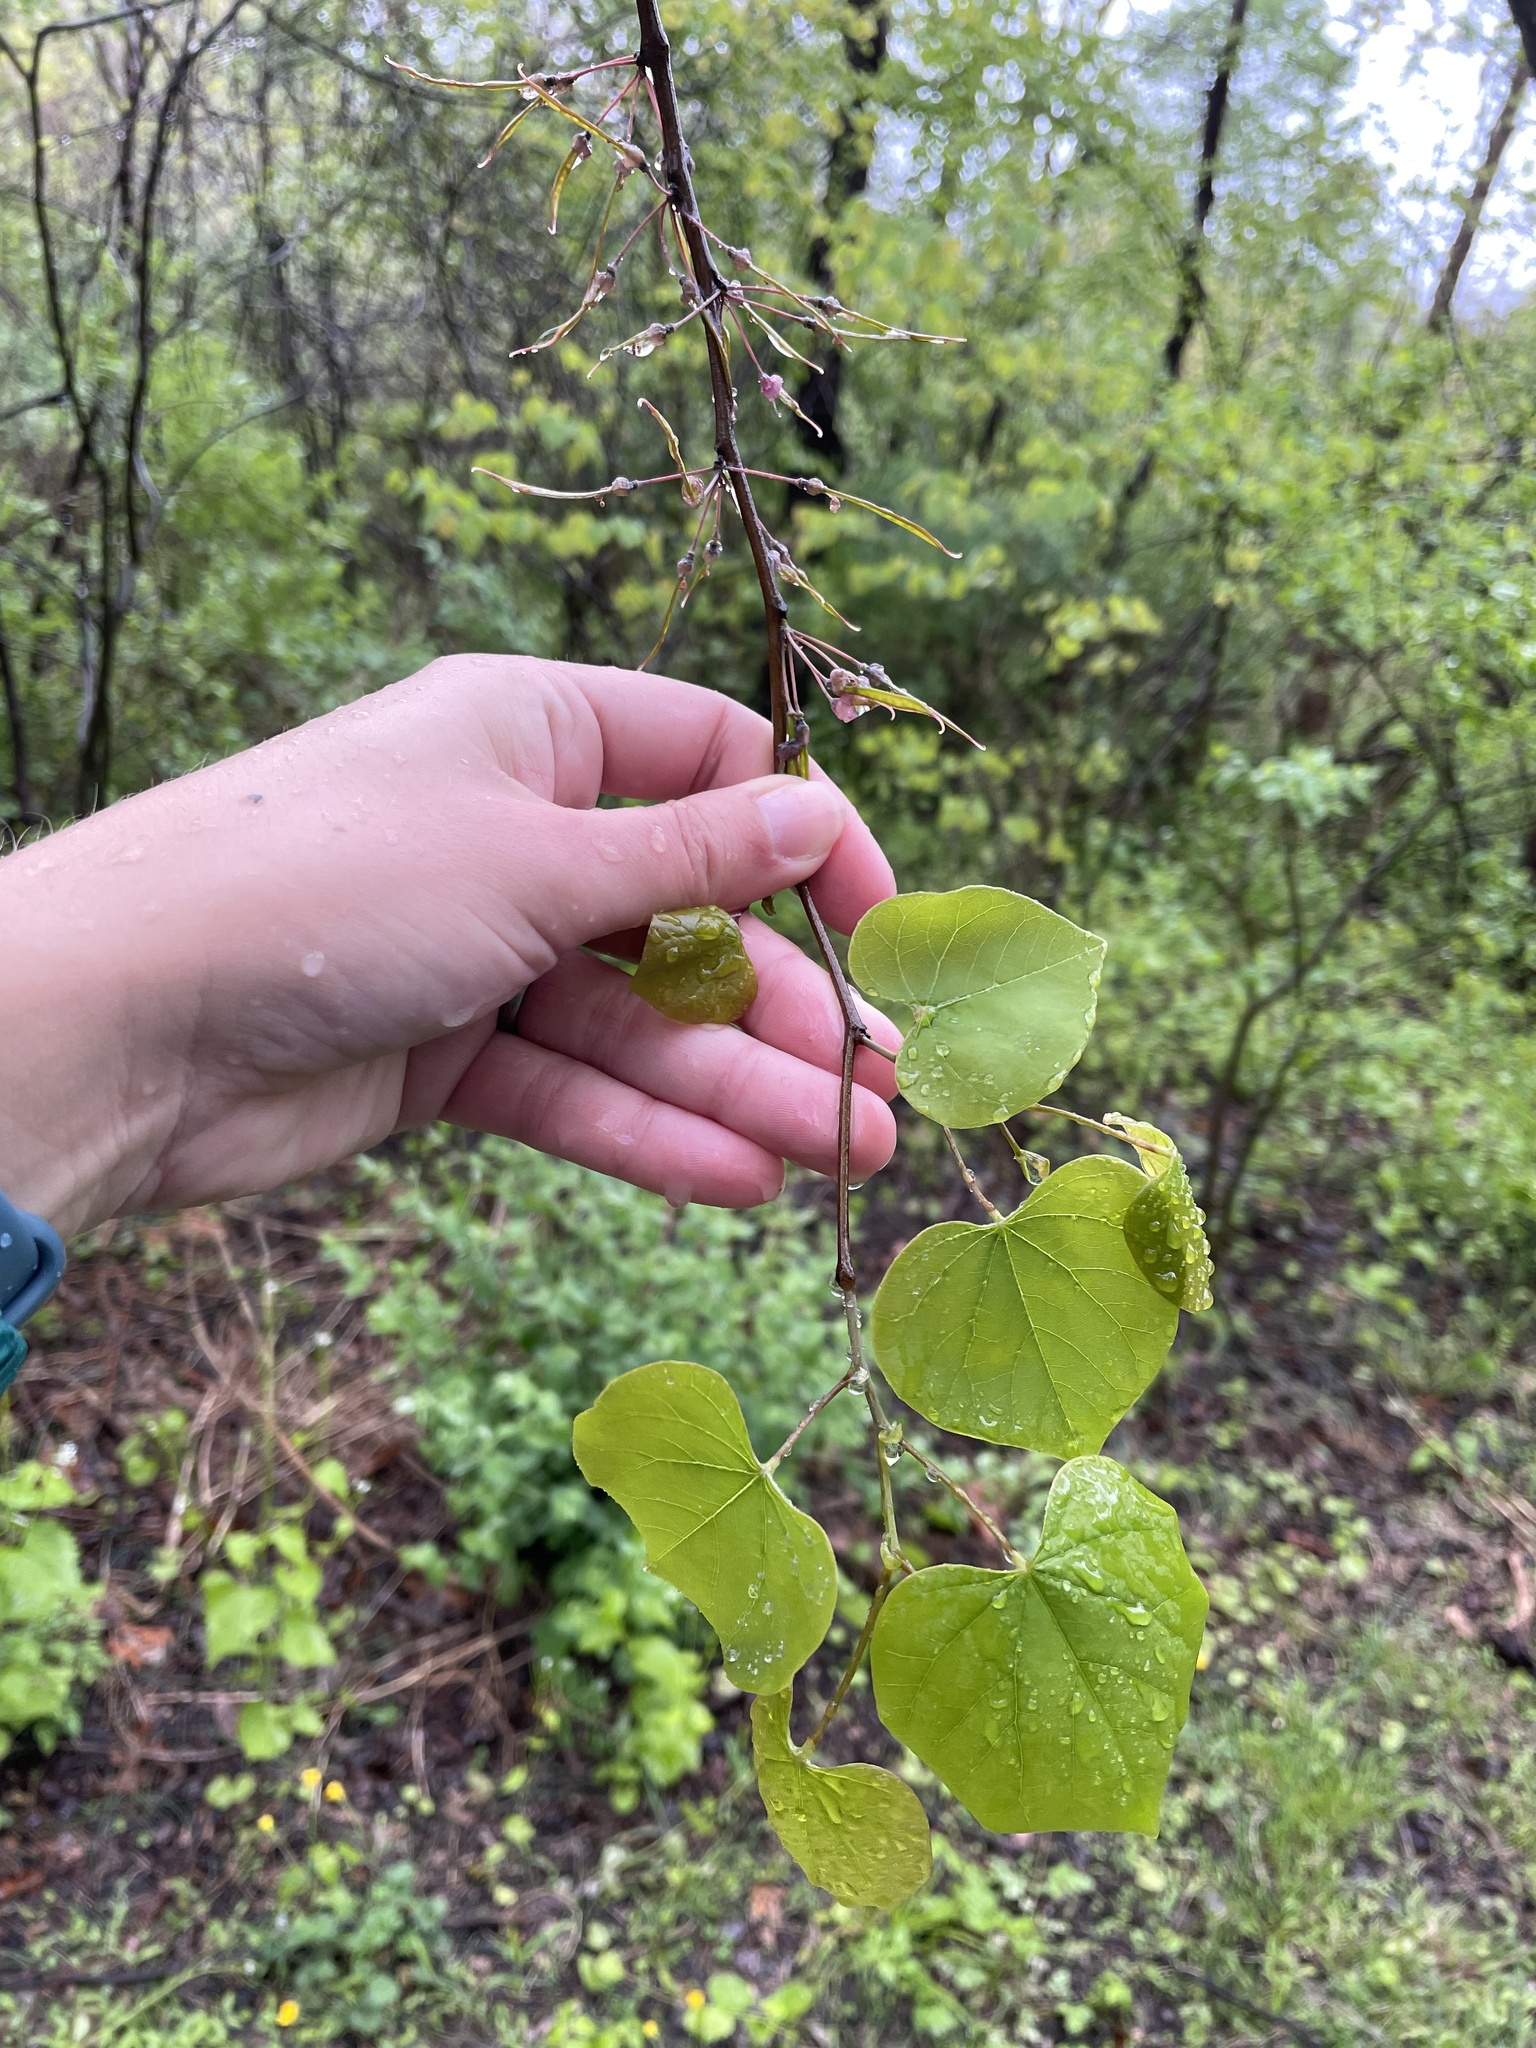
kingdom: Plantae
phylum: Tracheophyta
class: Magnoliopsida
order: Fabales
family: Fabaceae
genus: Cercis
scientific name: Cercis canadensis
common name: Eastern redbud
